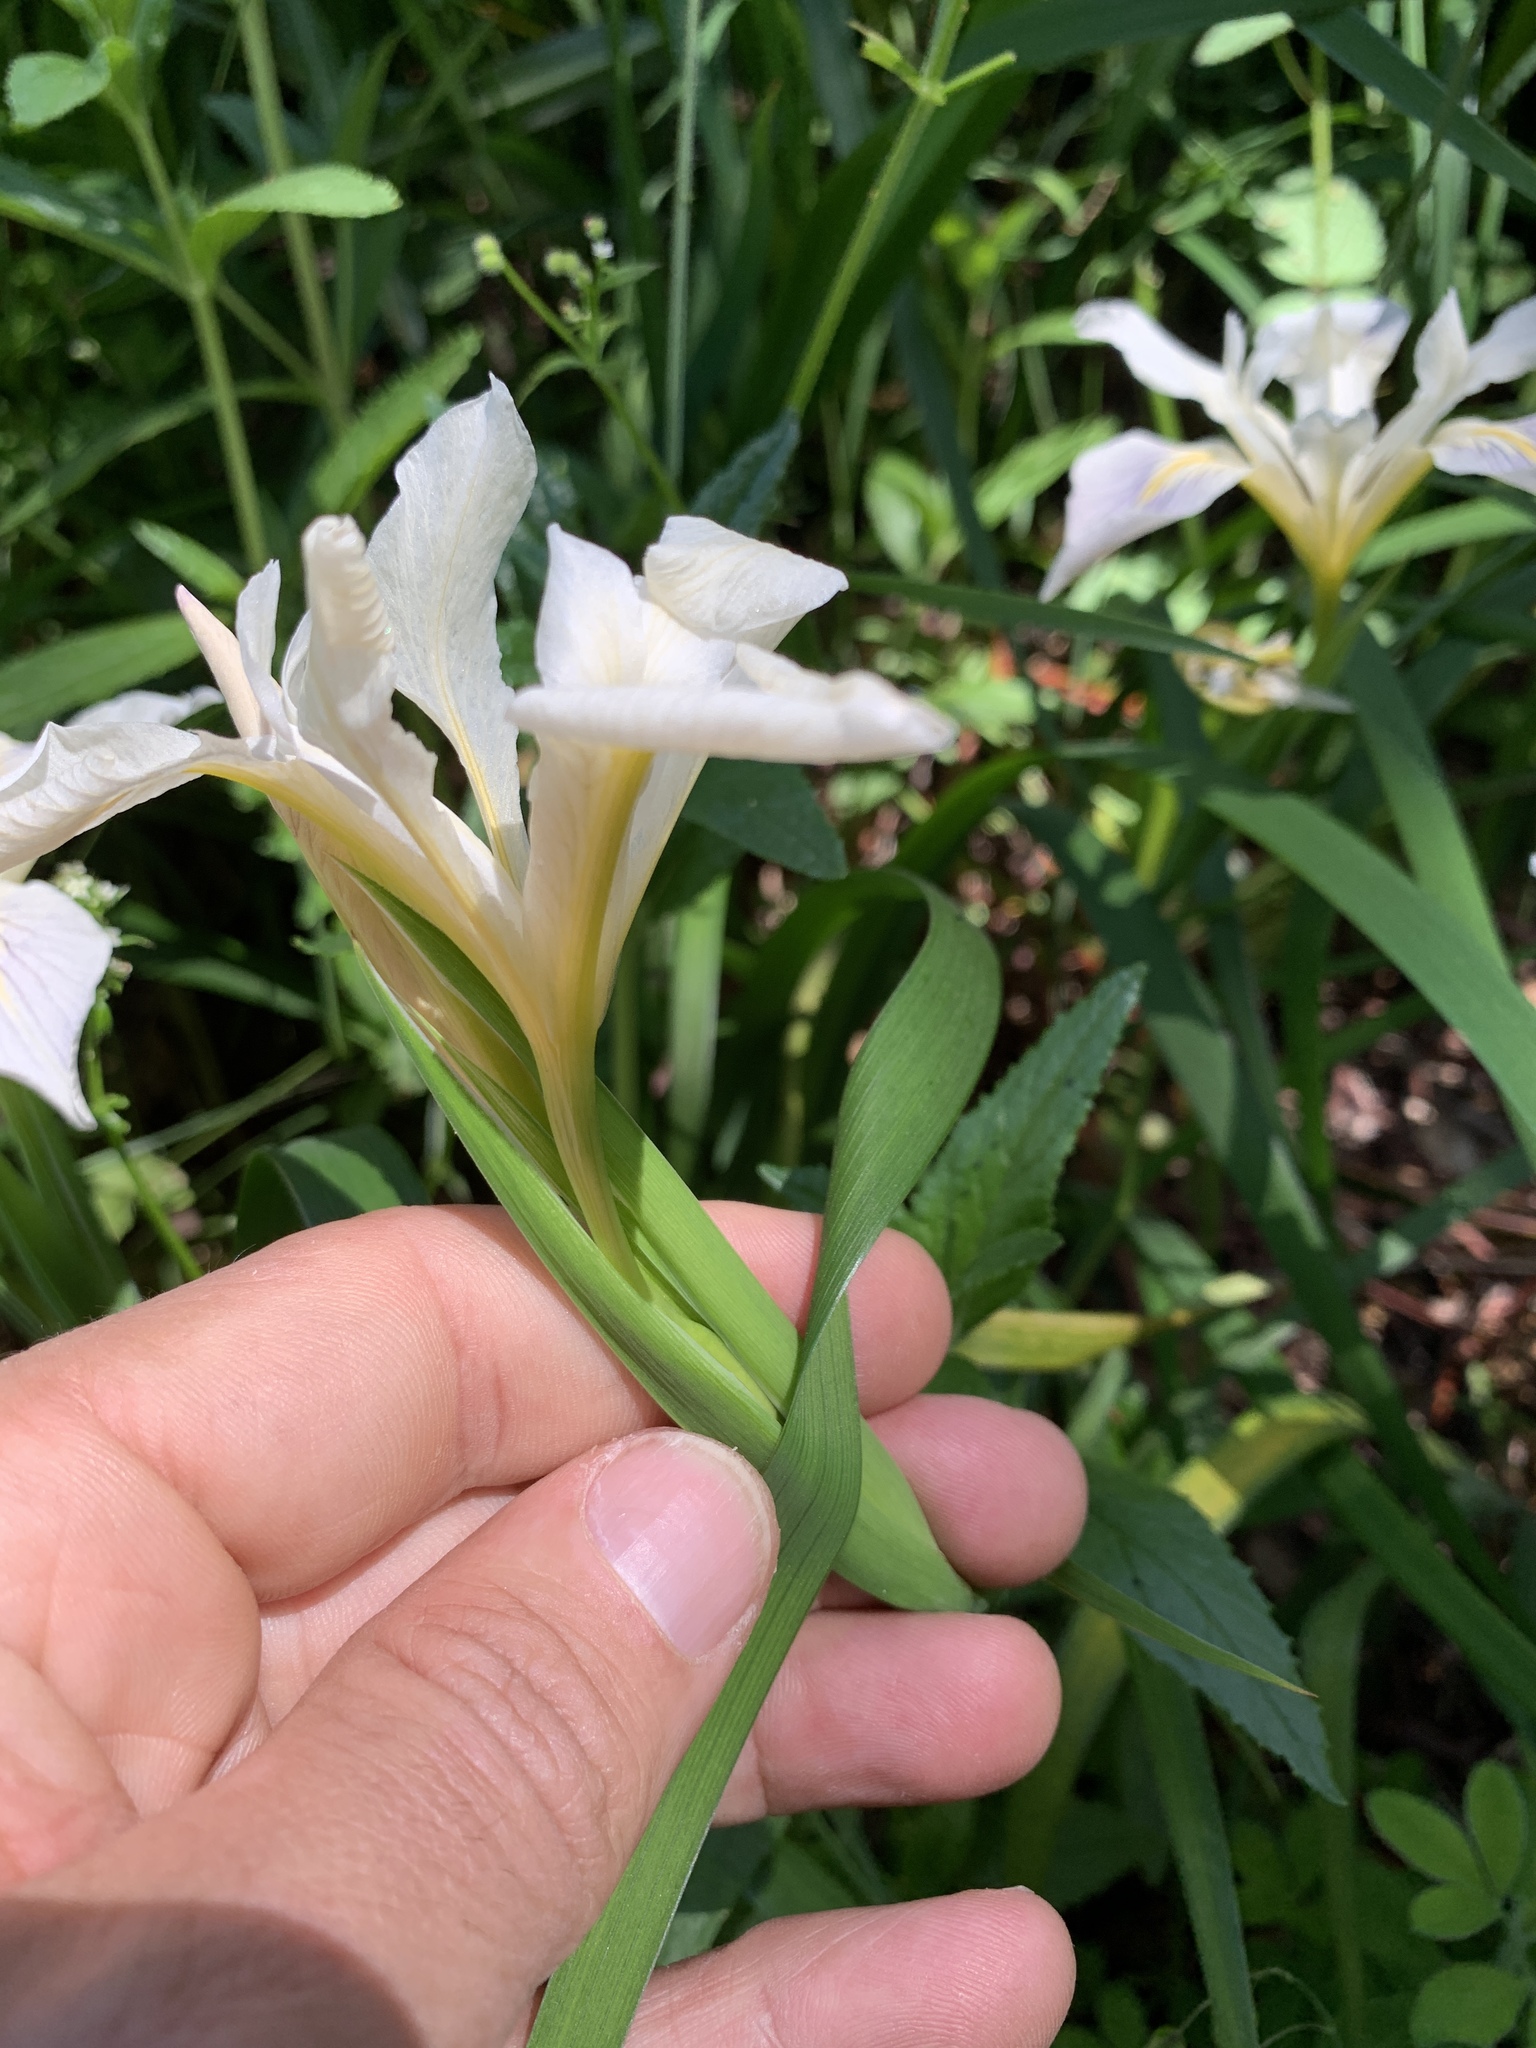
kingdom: Plantae
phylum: Tracheophyta
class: Liliopsida
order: Asparagales
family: Iridaceae
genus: Iris
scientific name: Iris douglasiana
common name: Marin iris
